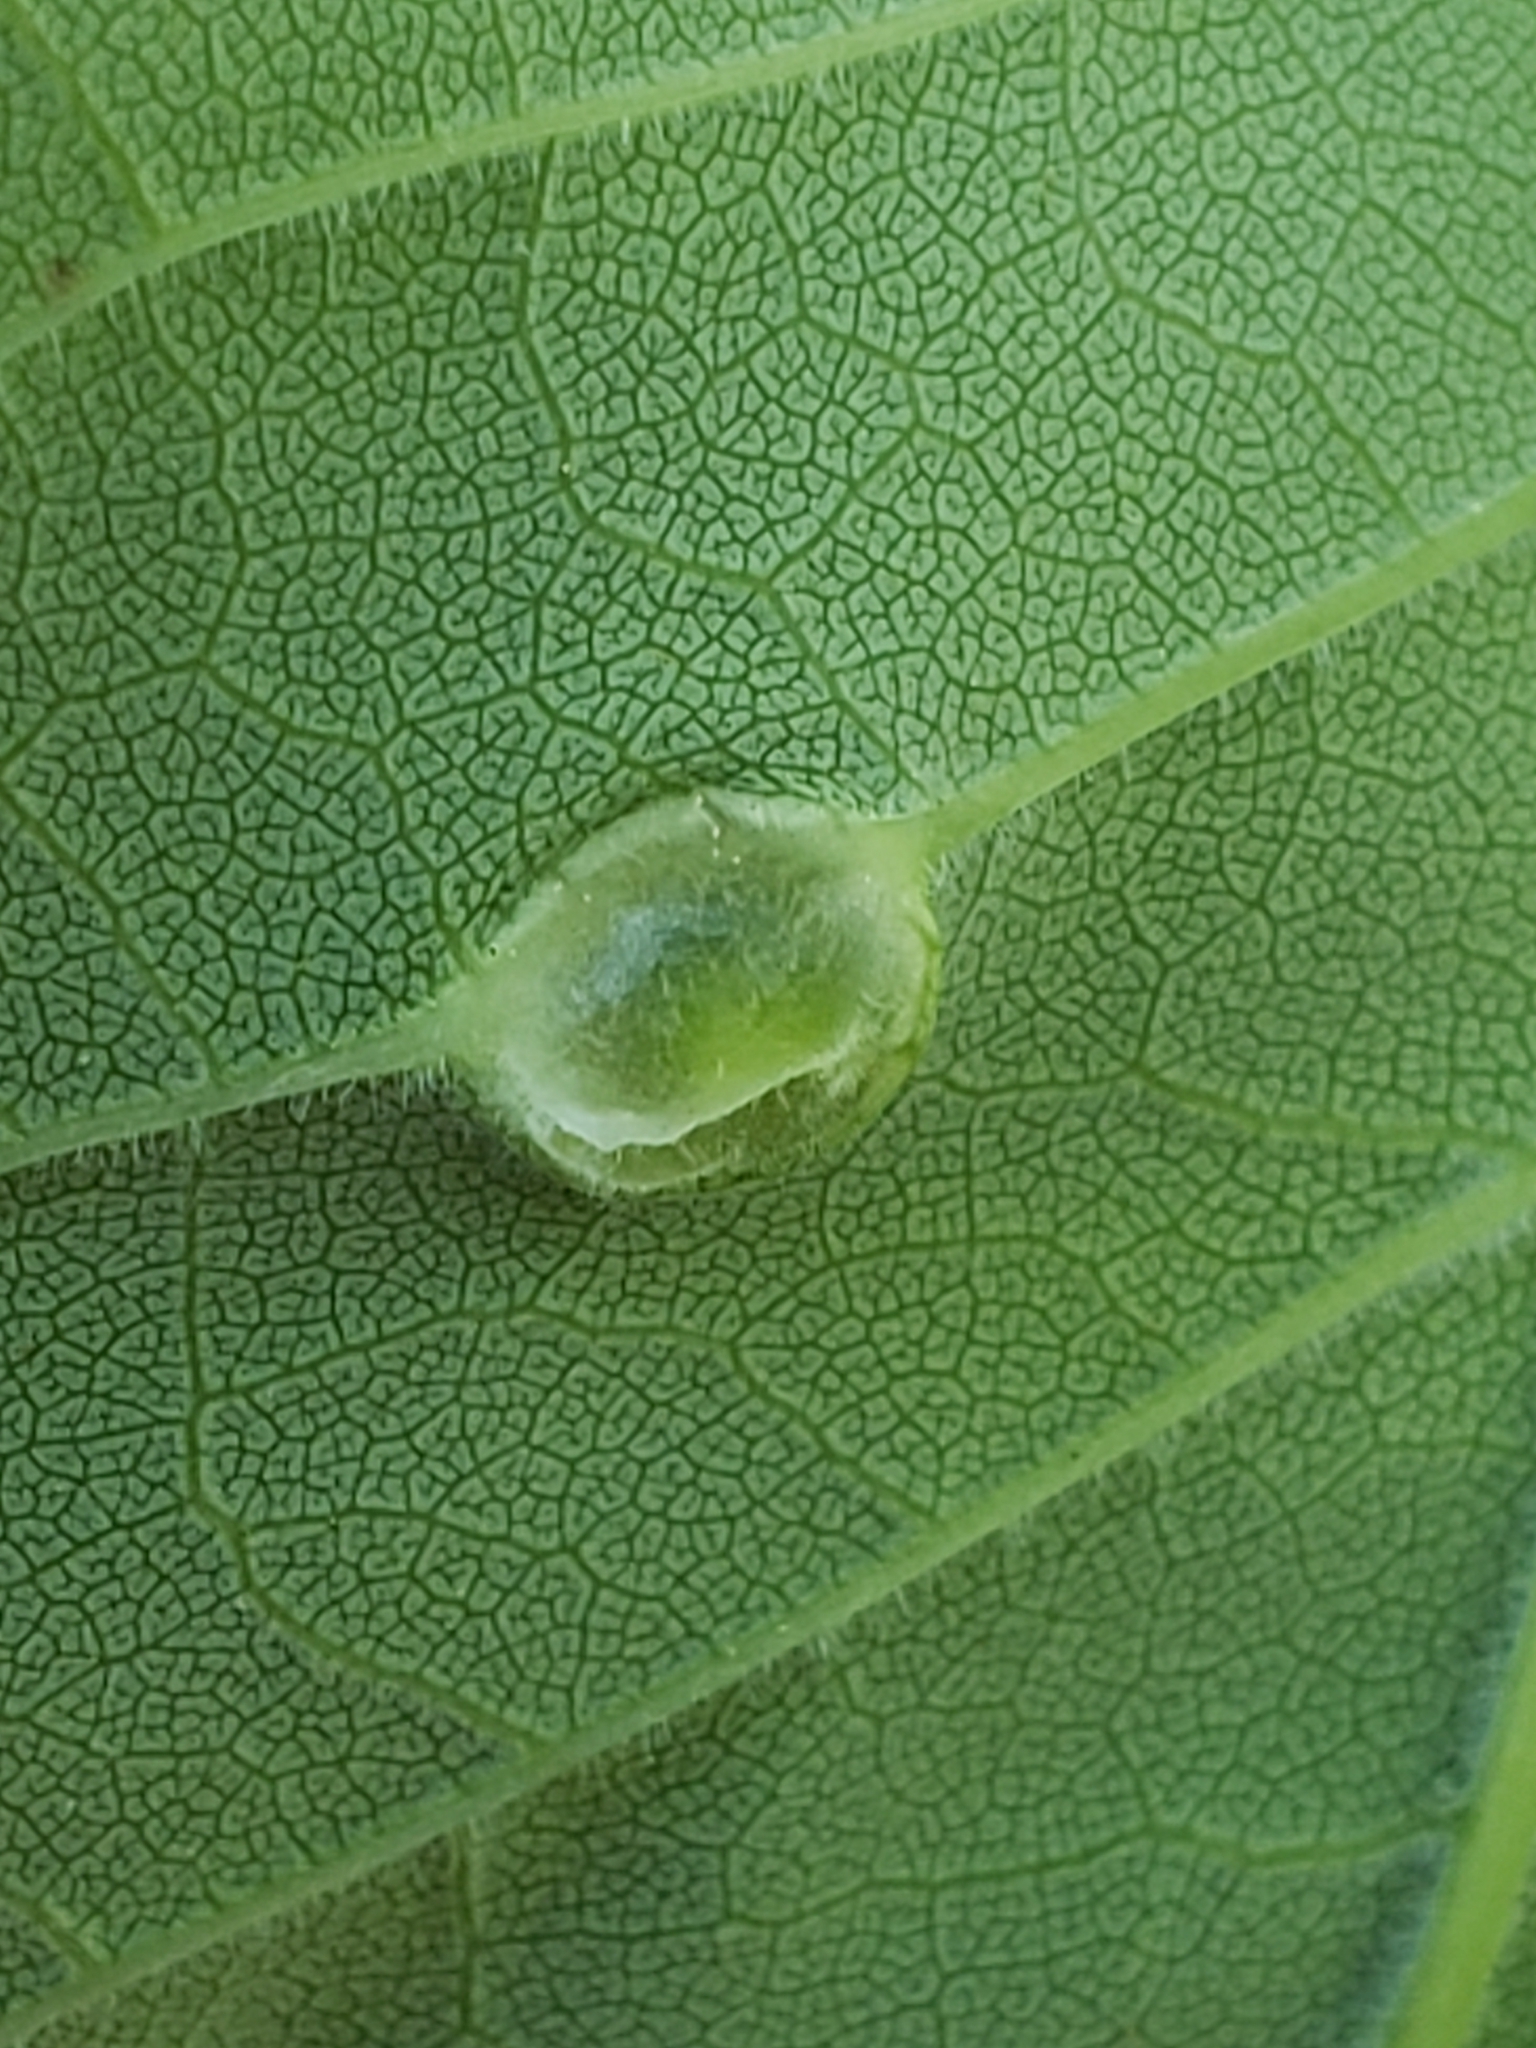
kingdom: Animalia
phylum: Arthropoda
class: Insecta
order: Diptera
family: Cecidomyiidae
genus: Dasineura
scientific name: Dasineura pellex
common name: Ash bullet gall midge
